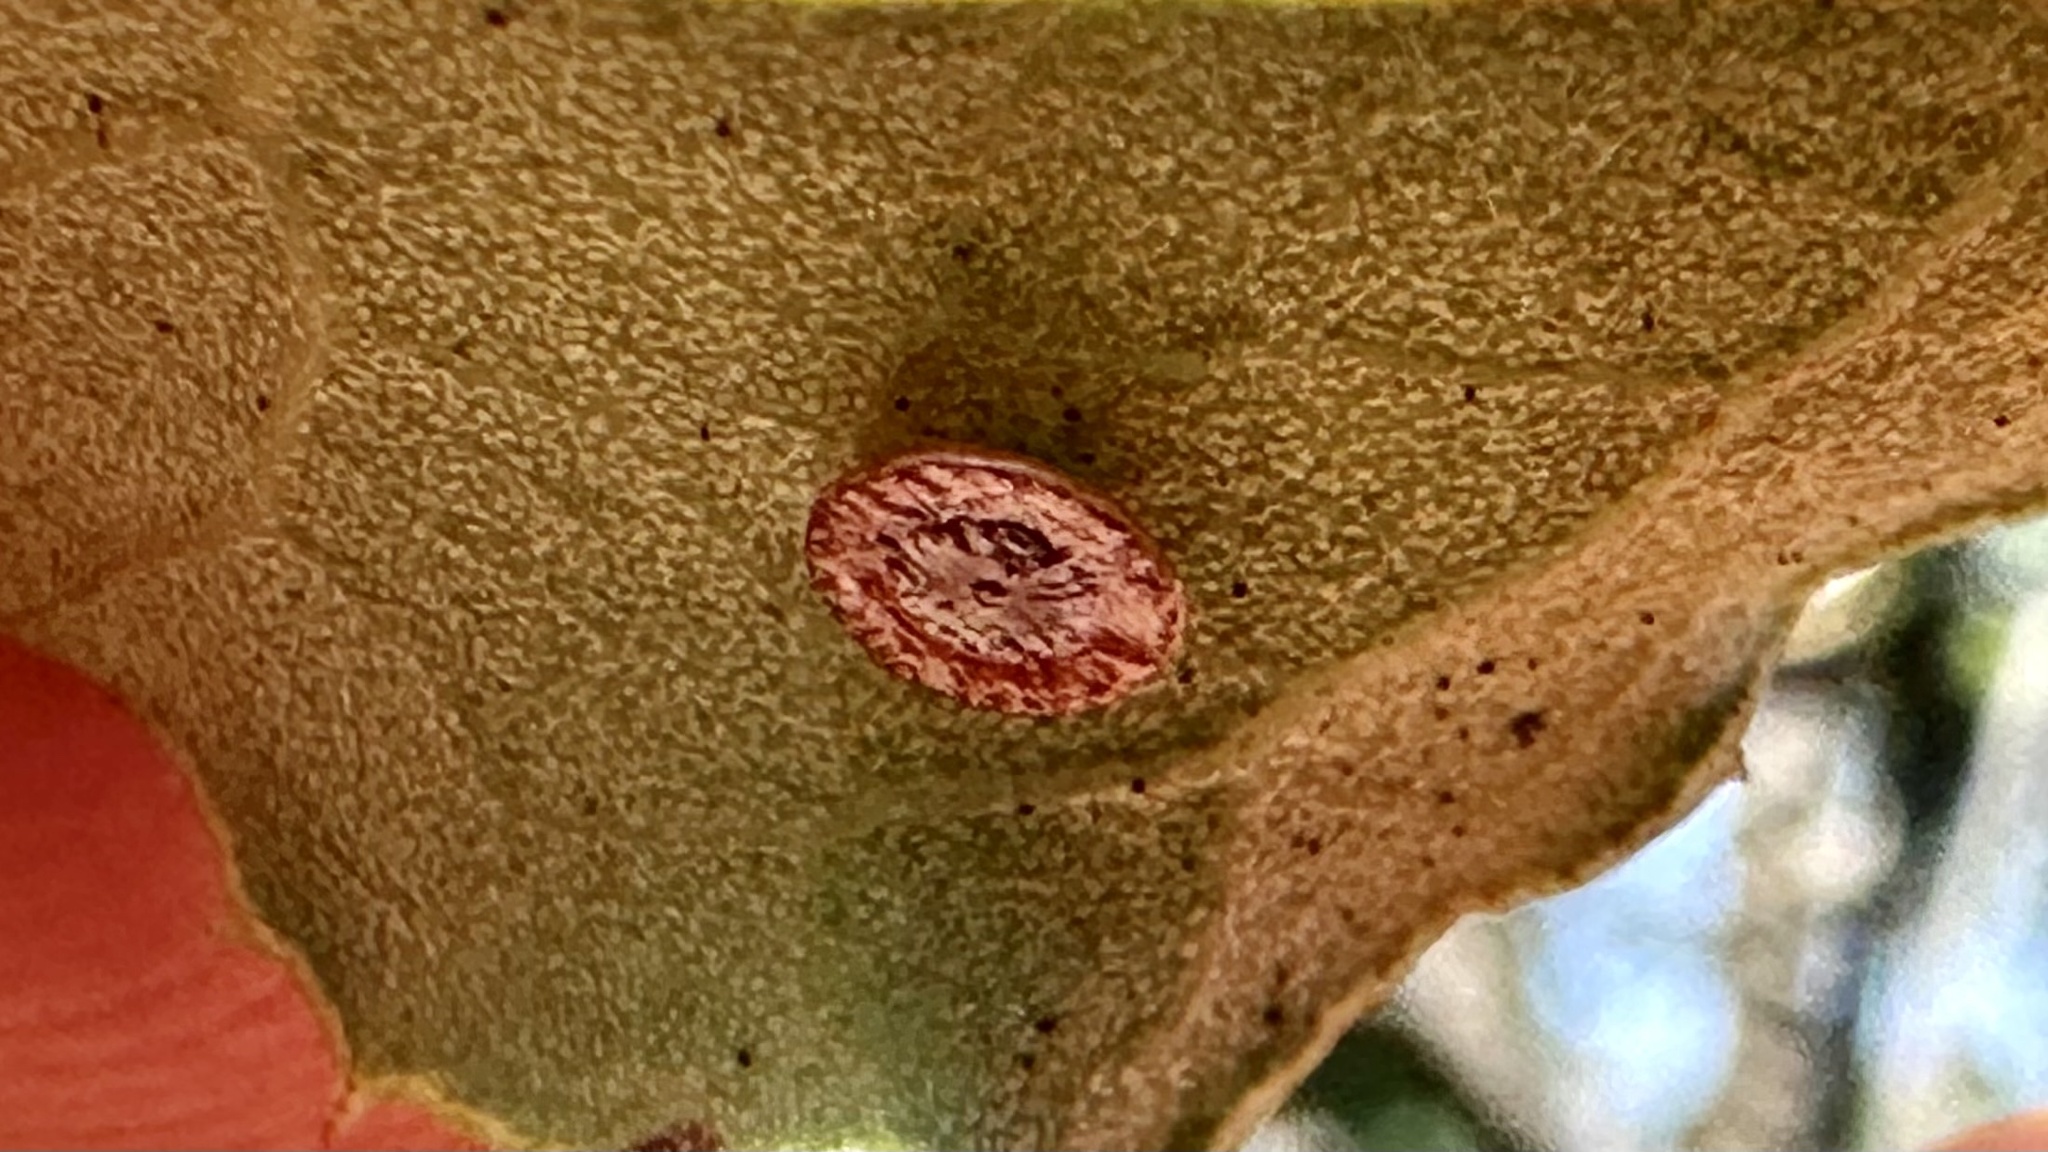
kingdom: Animalia
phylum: Arthropoda
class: Insecta
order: Hymenoptera
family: Cynipidae
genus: Andricus
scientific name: Andricus
